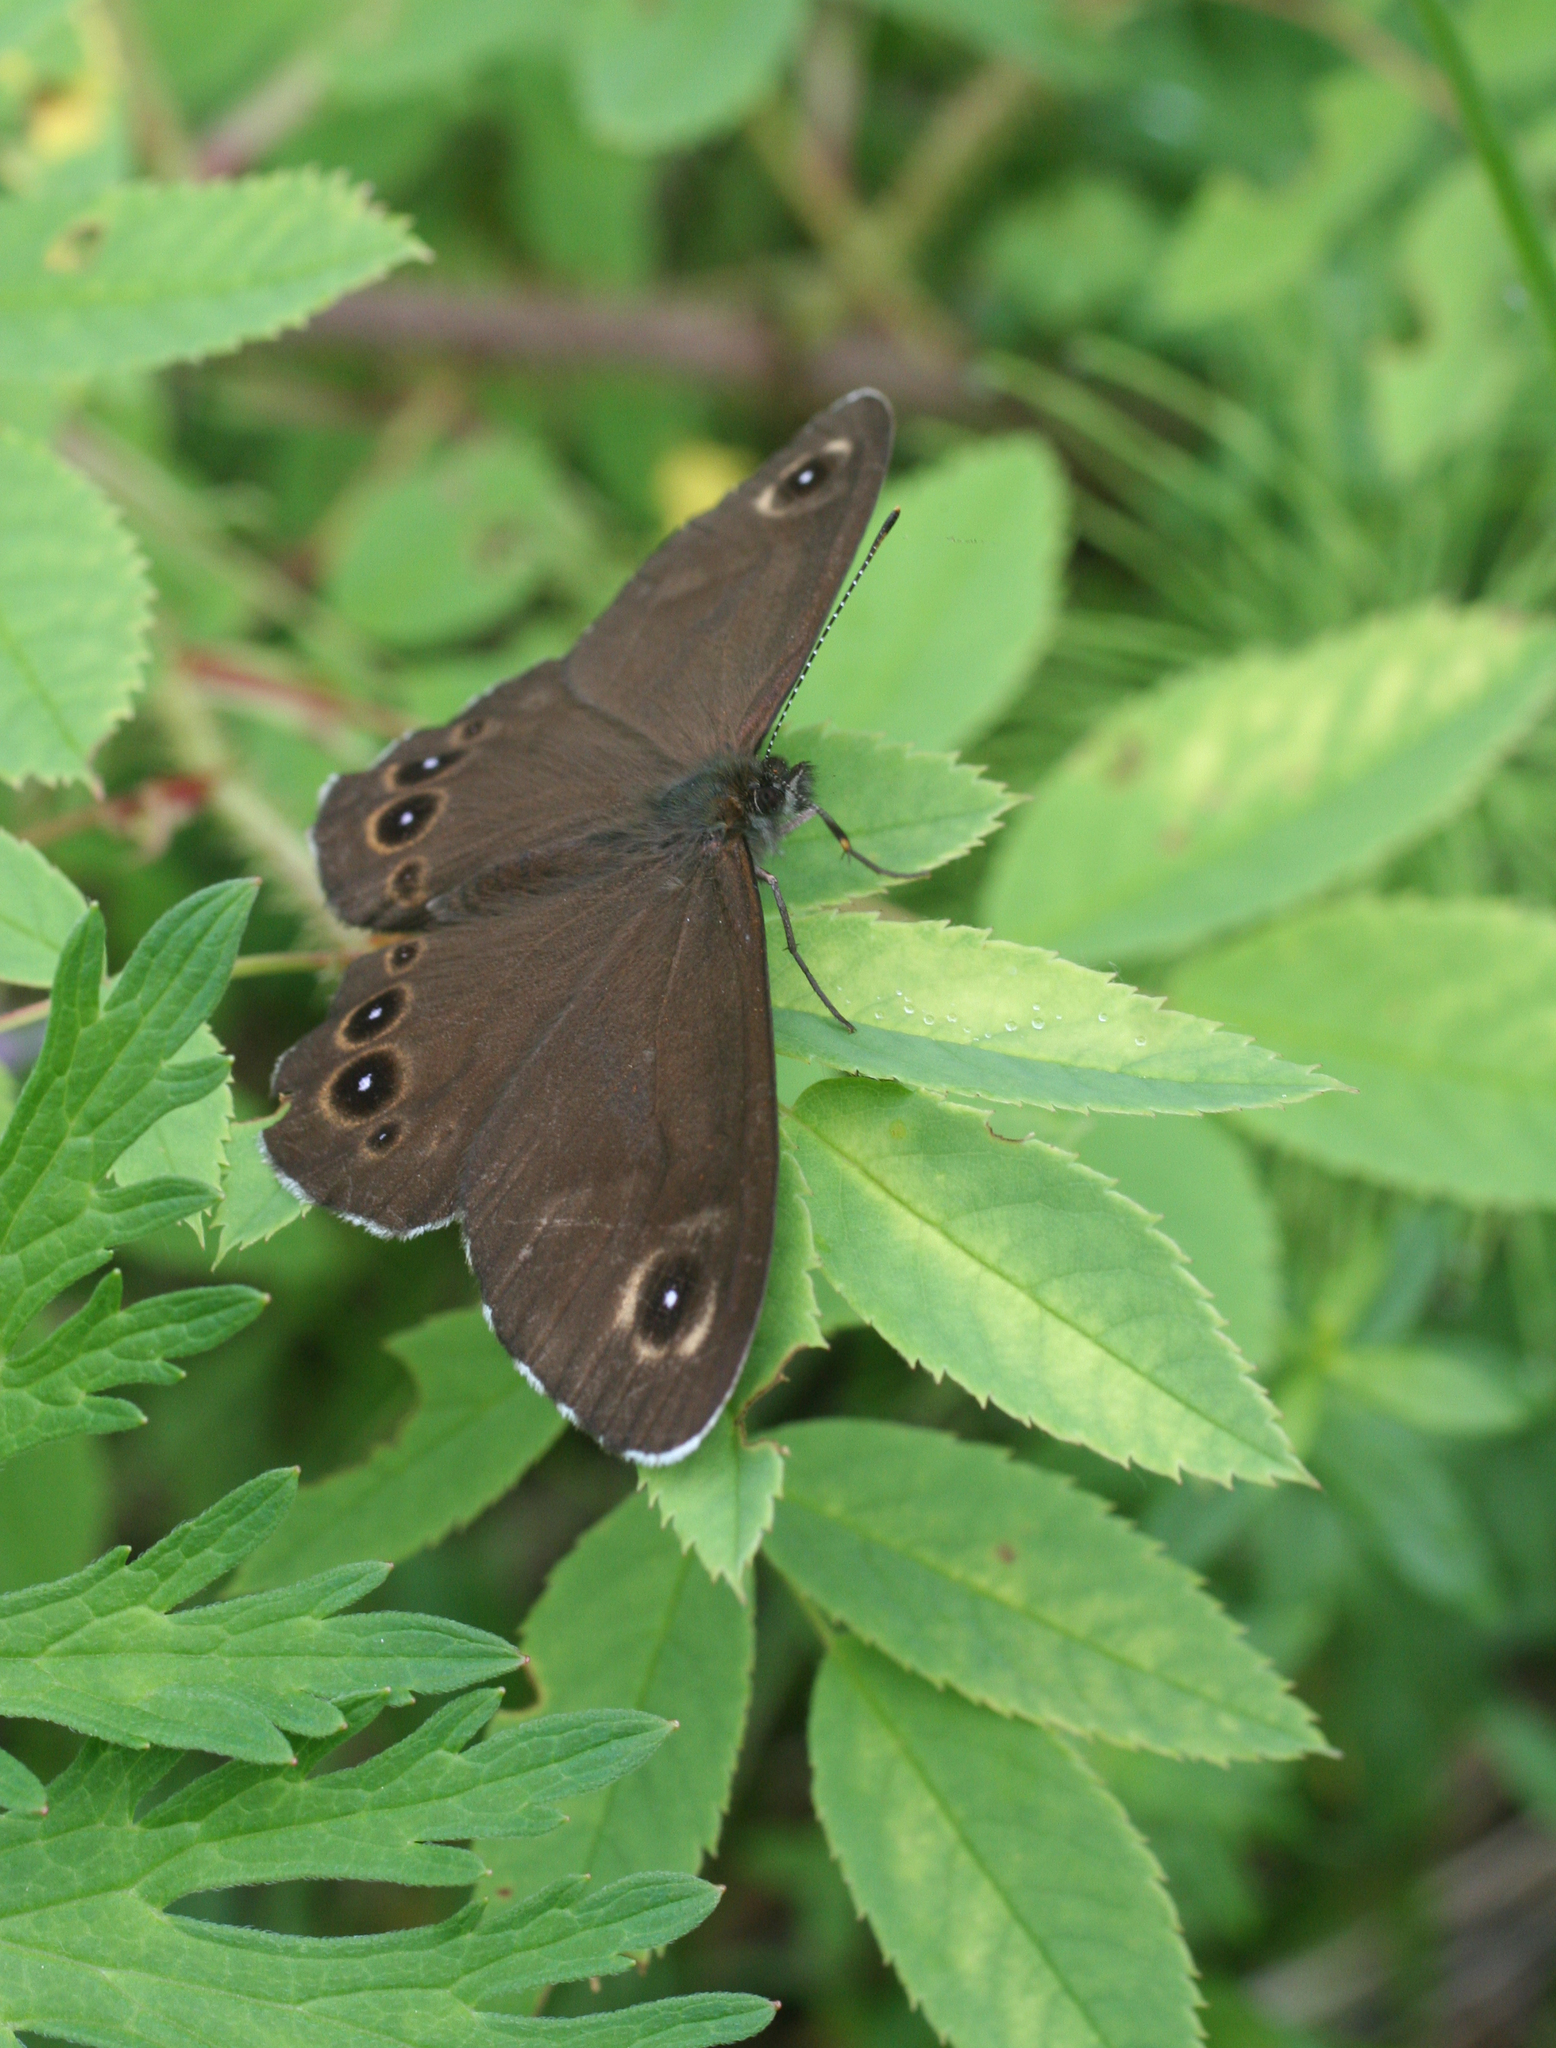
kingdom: Plantae
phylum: Tracheophyta
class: Magnoliopsida
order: Rosales
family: Rosaceae
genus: Rosa
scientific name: Rosa acicularis
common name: Prickly rose
